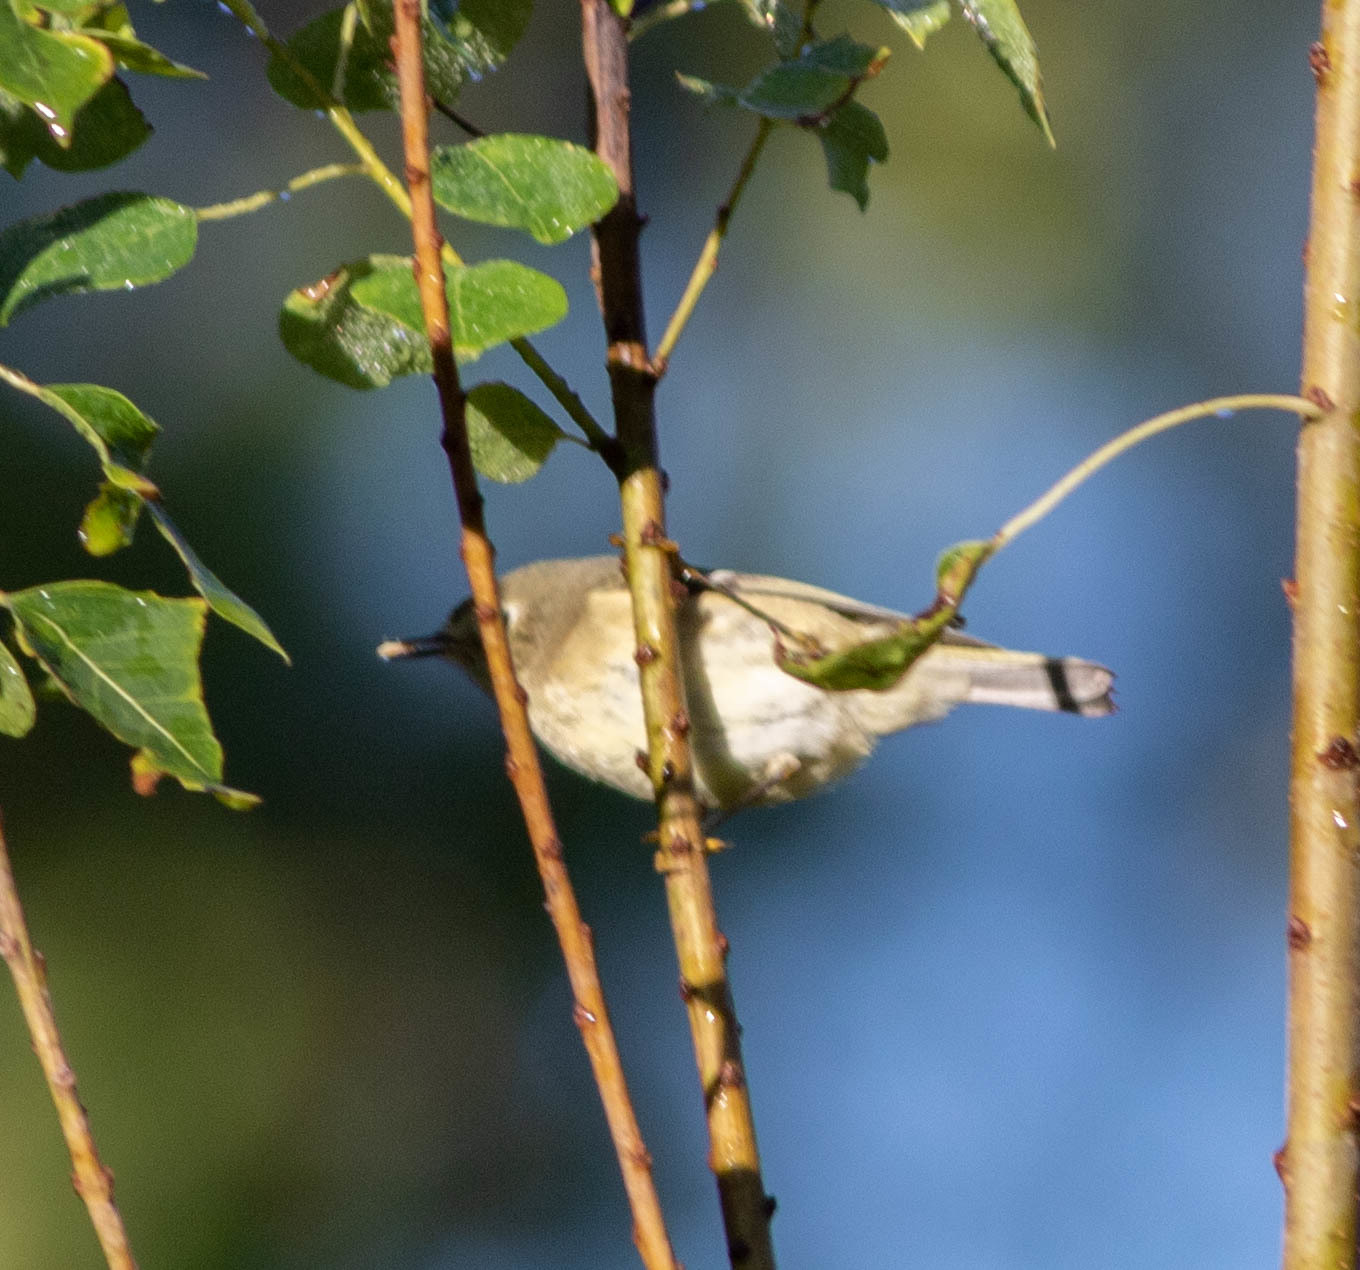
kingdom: Animalia
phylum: Chordata
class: Aves
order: Passeriformes
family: Regulidae
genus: Regulus
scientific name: Regulus calendula
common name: Ruby-crowned kinglet
